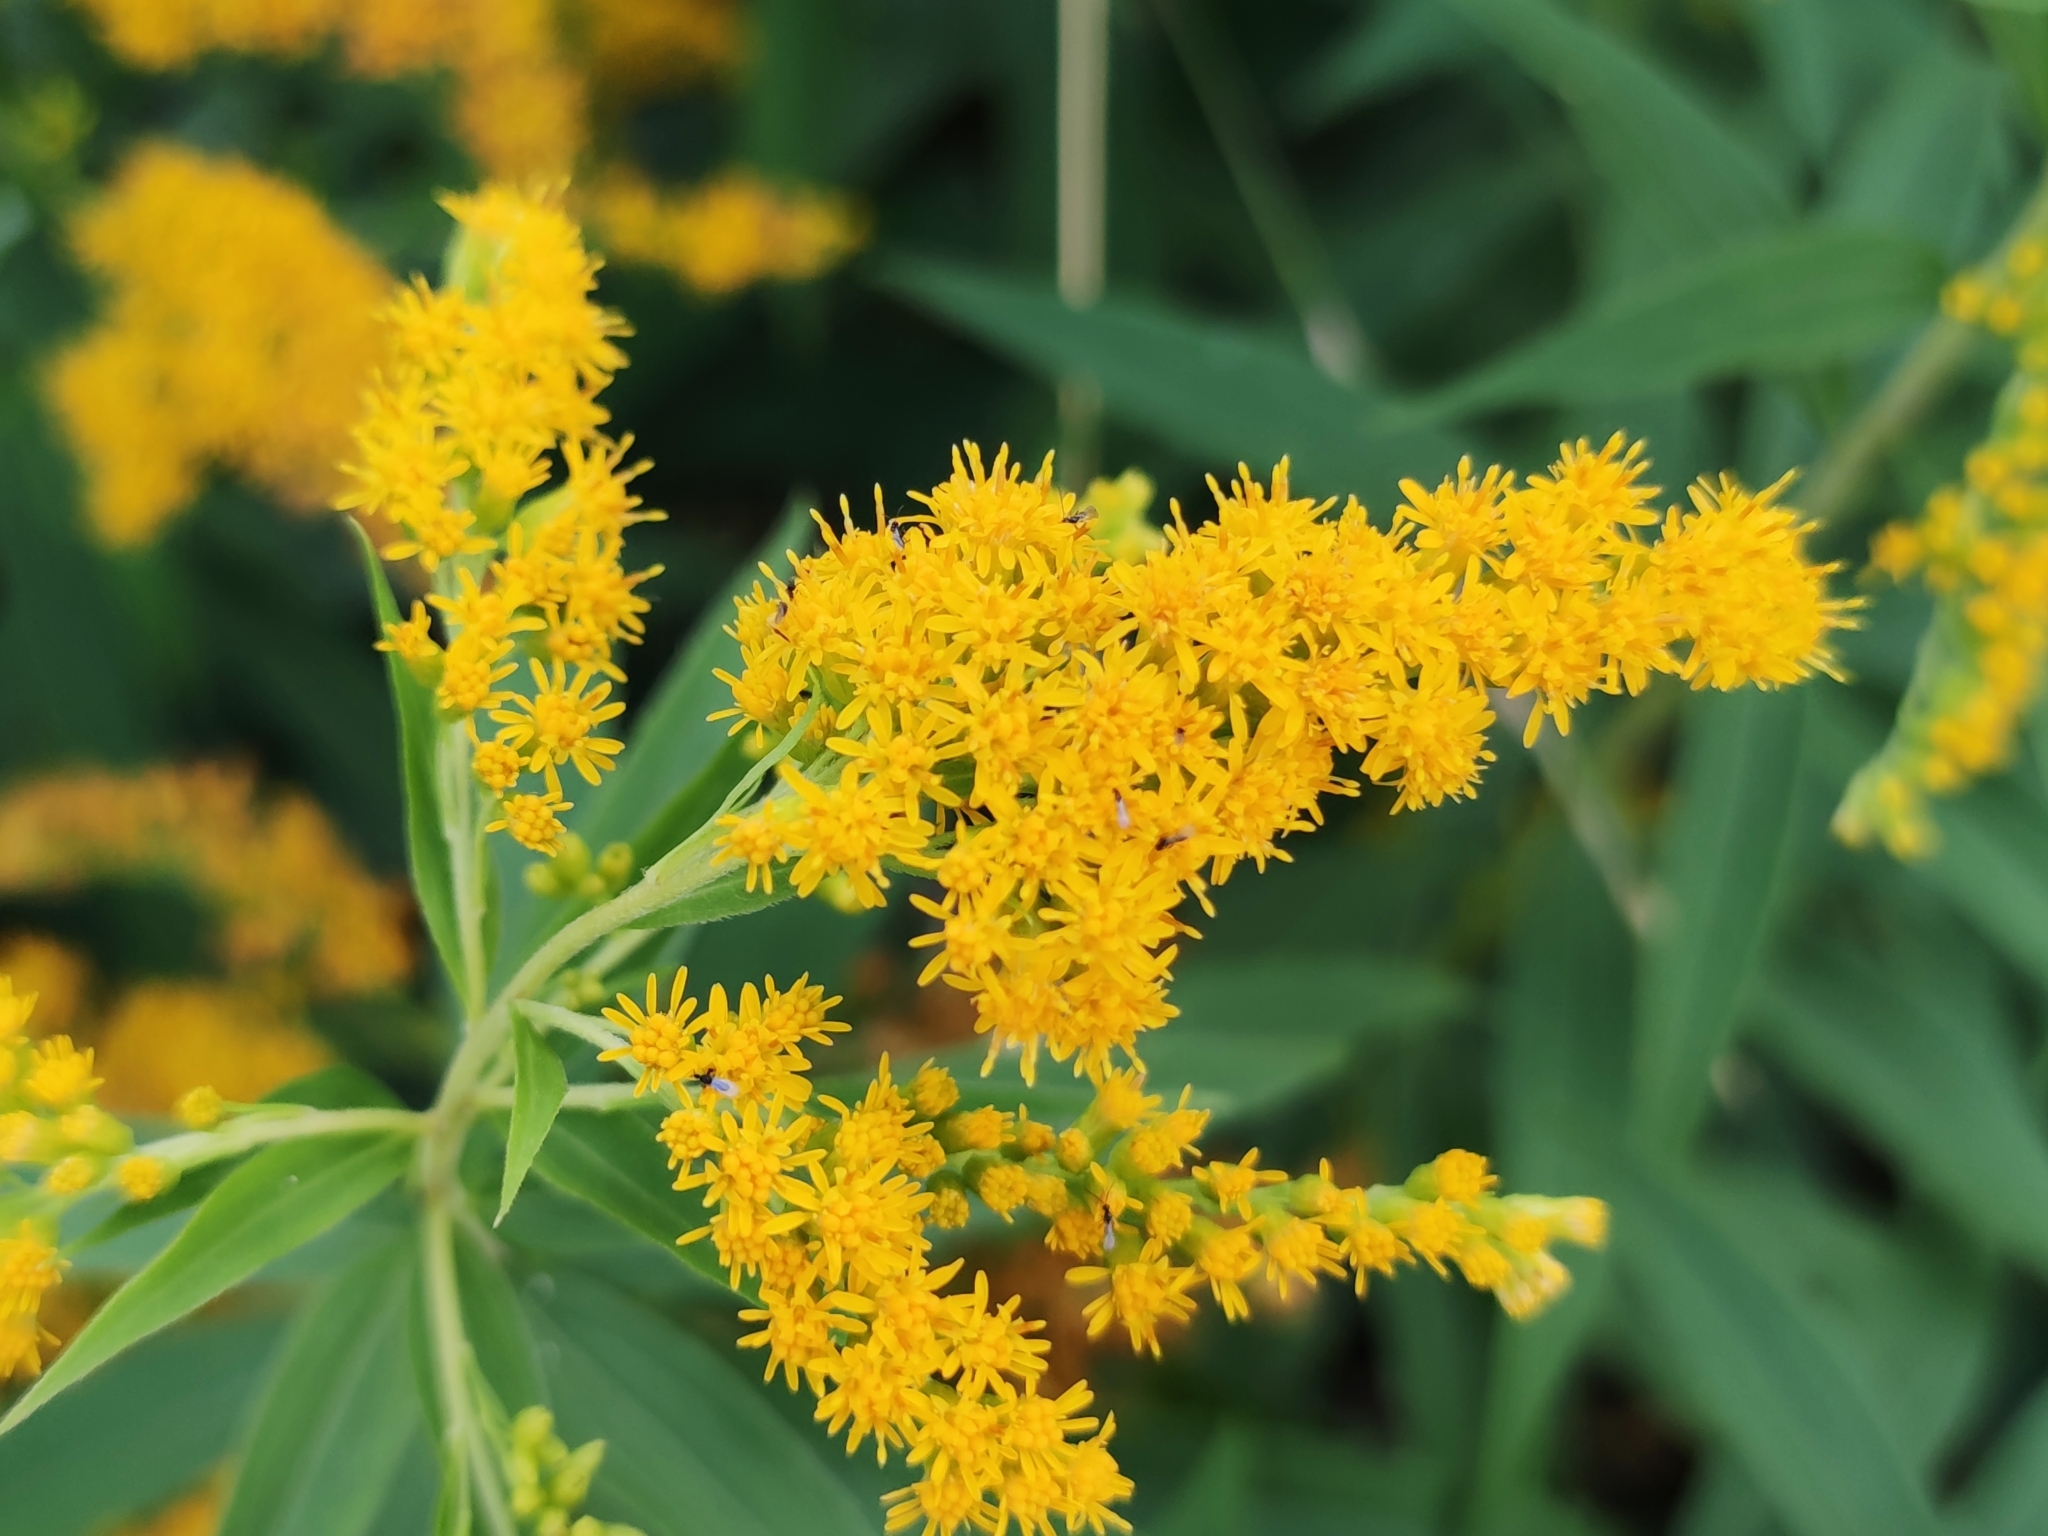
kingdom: Plantae
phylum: Tracheophyta
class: Magnoliopsida
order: Asterales
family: Asteraceae
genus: Solidago
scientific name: Solidago canadensis
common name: Canada goldenrod
